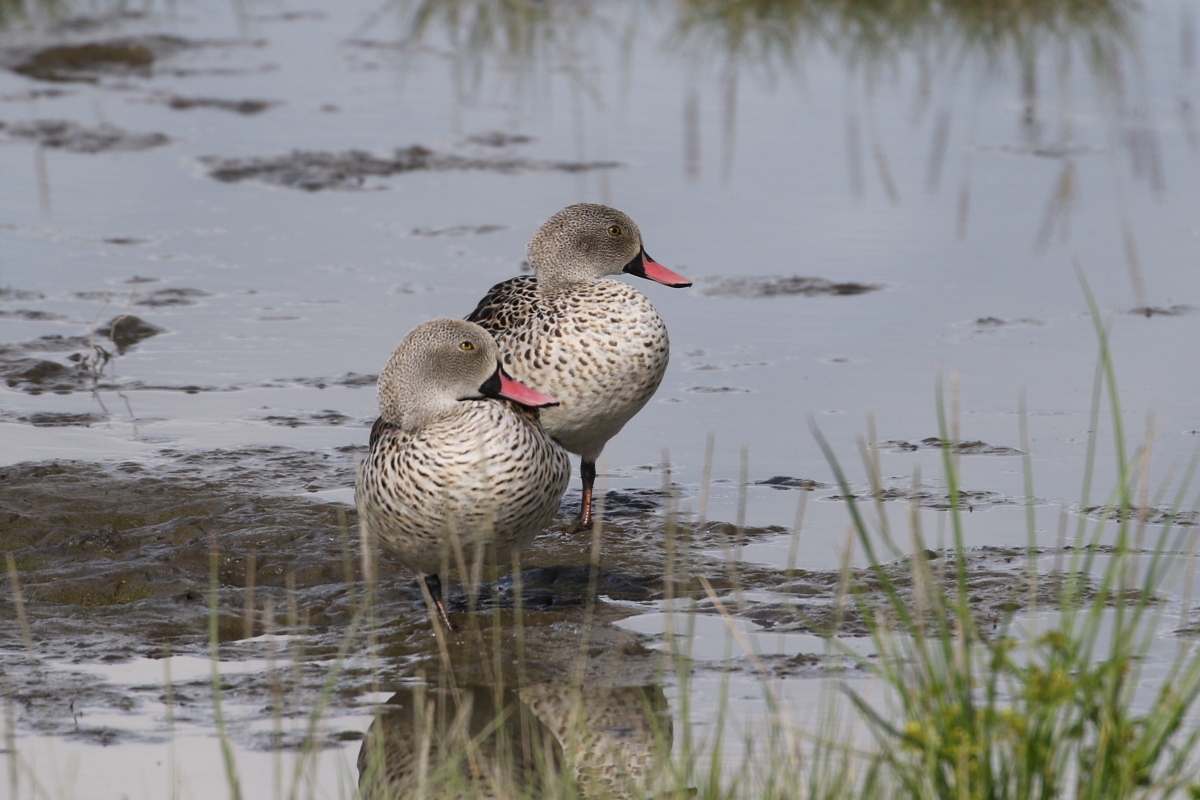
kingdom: Animalia
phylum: Chordata
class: Aves
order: Anseriformes
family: Anatidae
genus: Anas
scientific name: Anas capensis
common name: Cape teal
